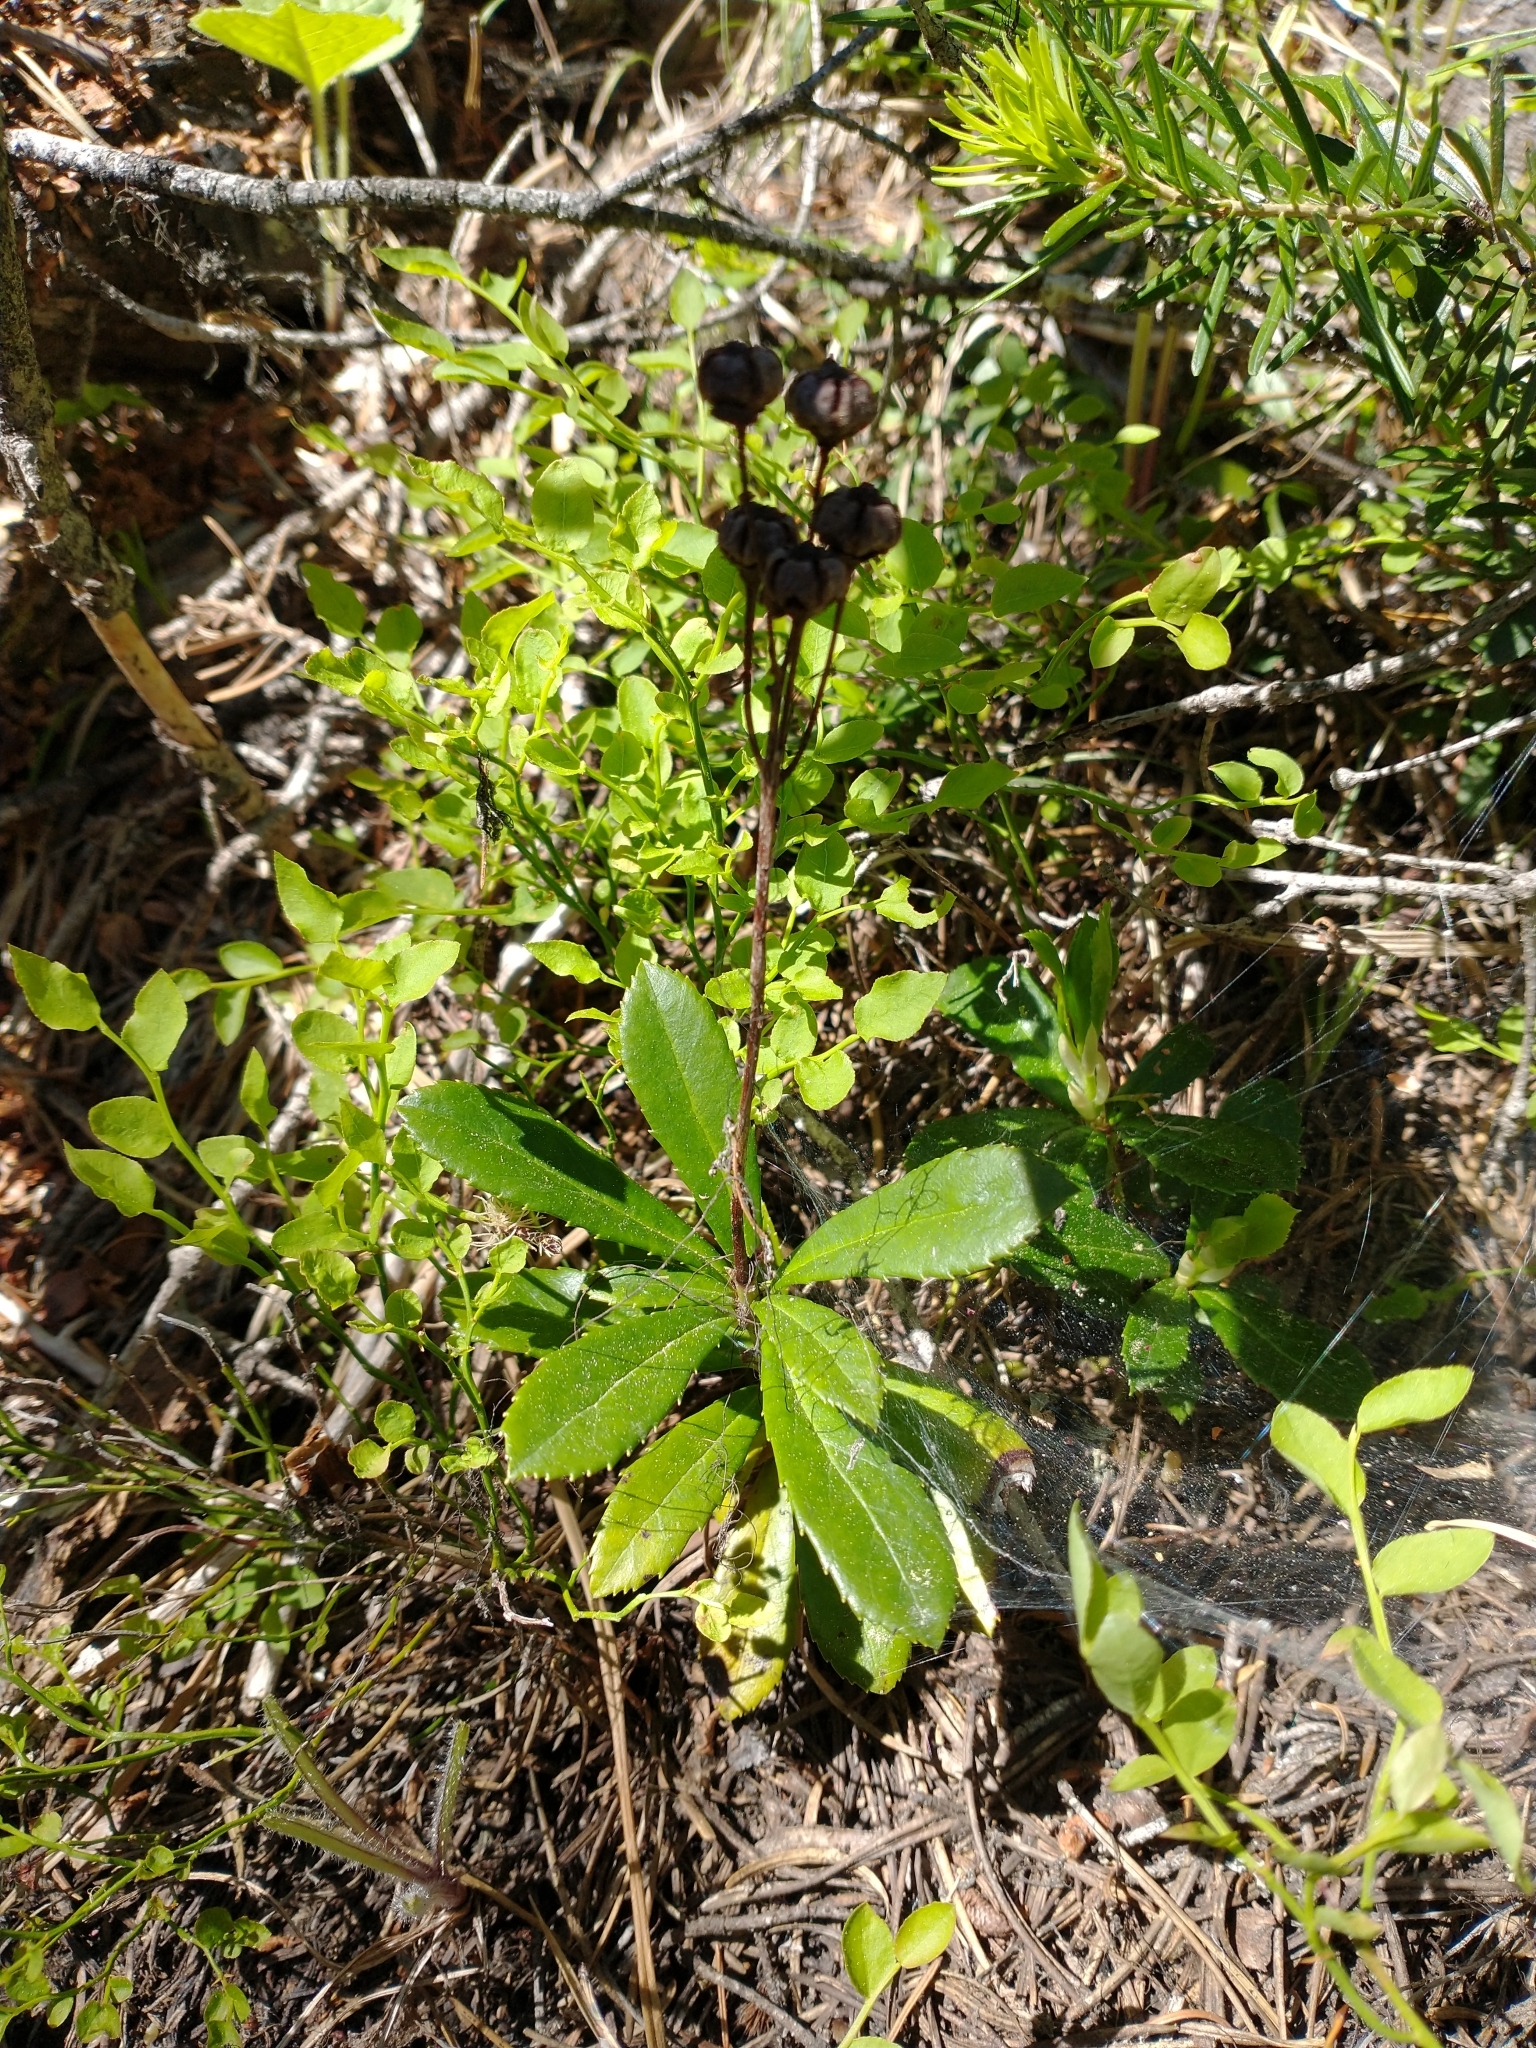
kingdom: Plantae
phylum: Tracheophyta
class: Magnoliopsida
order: Ericales
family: Ericaceae
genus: Chimaphila
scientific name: Chimaphila umbellata
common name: Pipsissewa
